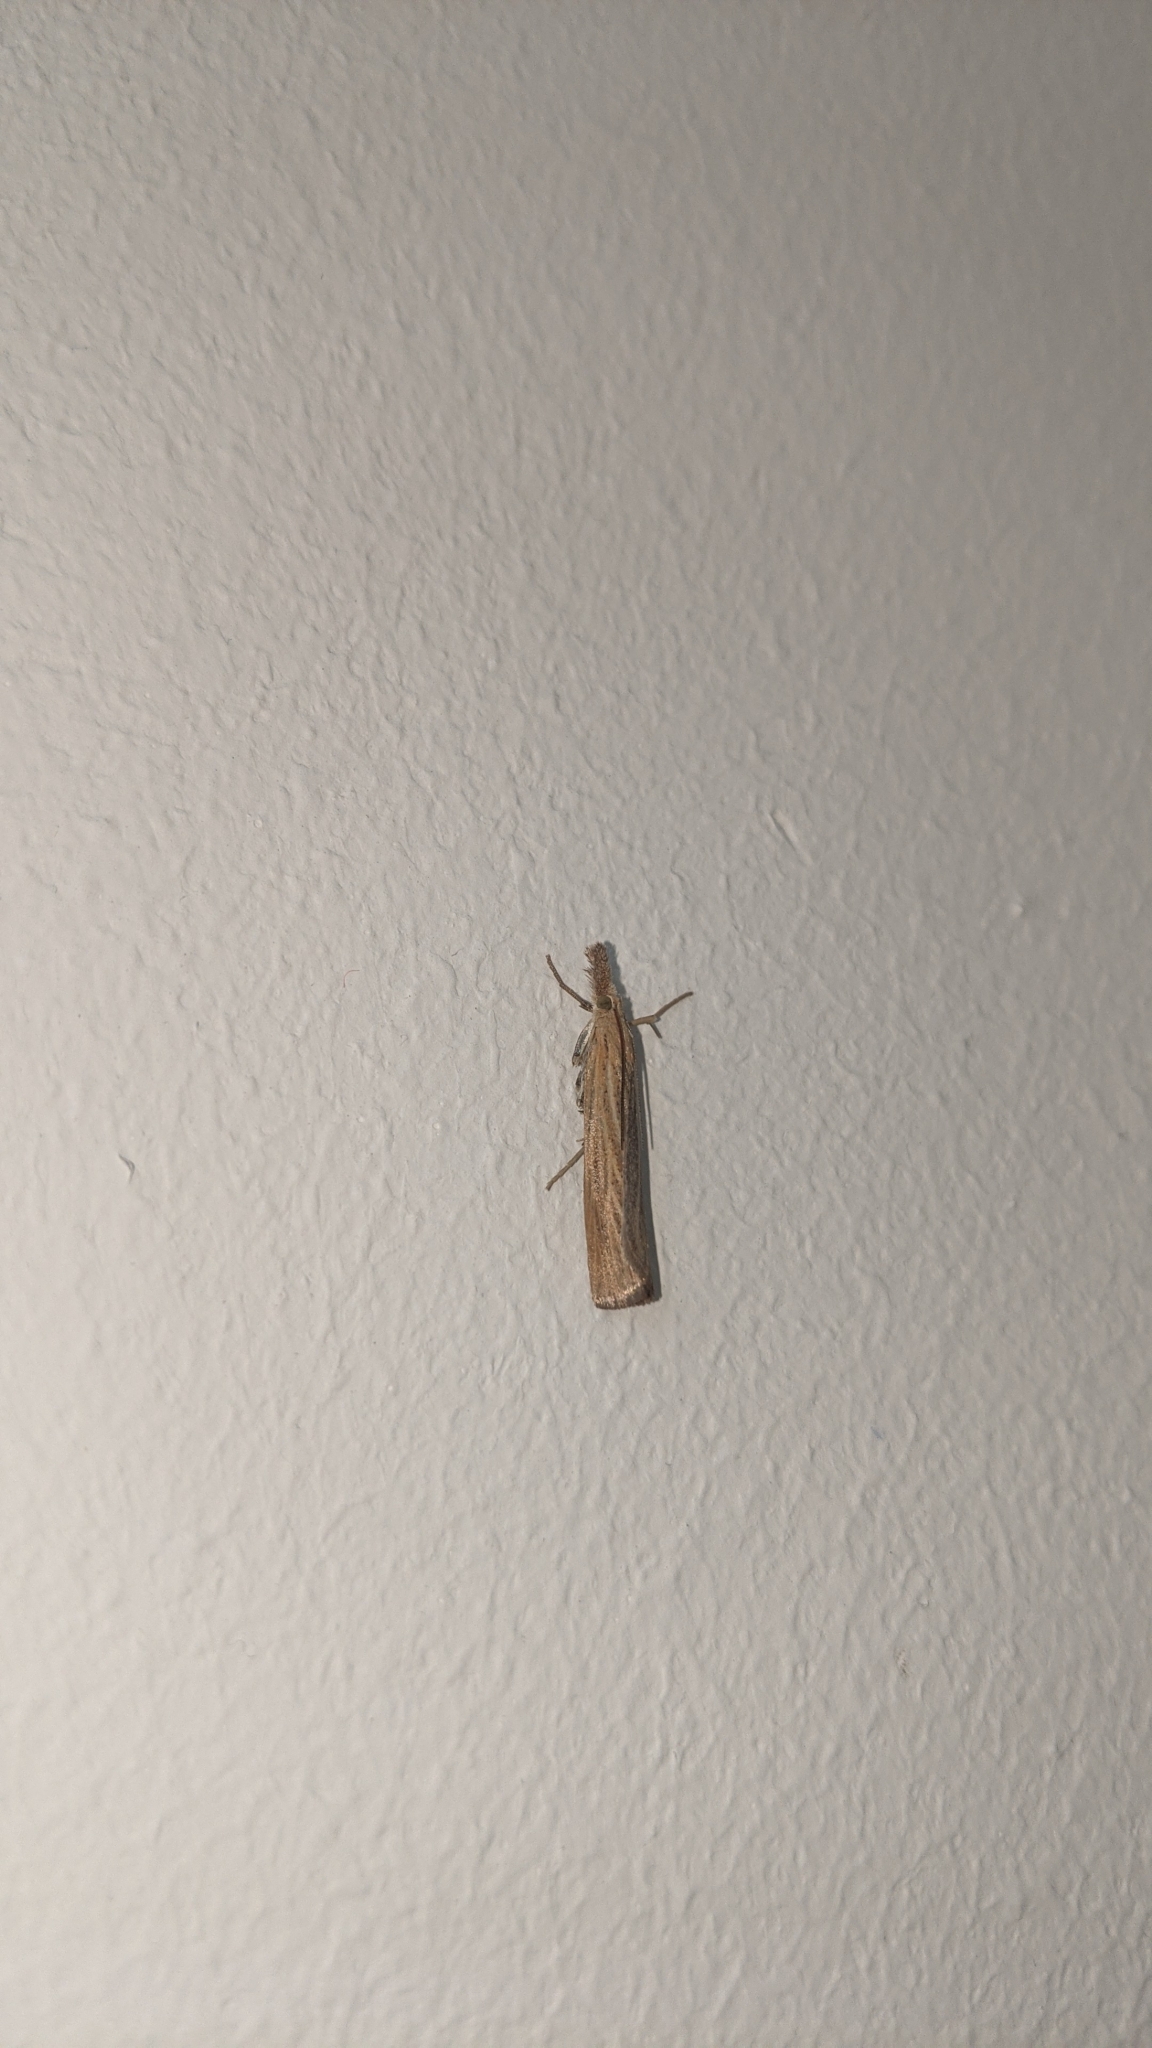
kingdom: Animalia
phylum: Arthropoda
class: Insecta
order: Lepidoptera
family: Crambidae
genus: Pediasia
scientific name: Pediasia luteella
